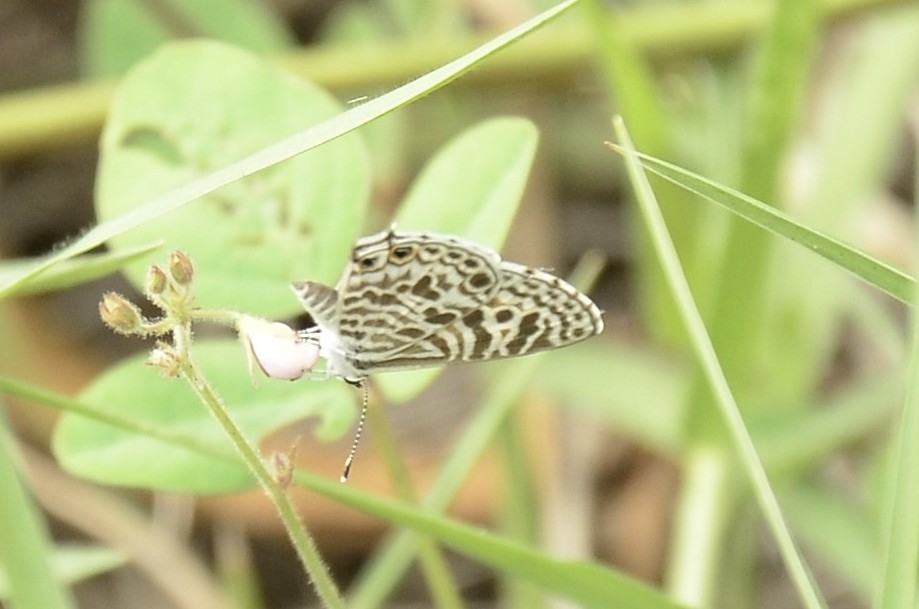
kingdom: Animalia
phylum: Arthropoda
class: Insecta
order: Lepidoptera
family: Lycaenidae
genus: Leptotes
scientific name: Leptotes plinius
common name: Zebra blue
